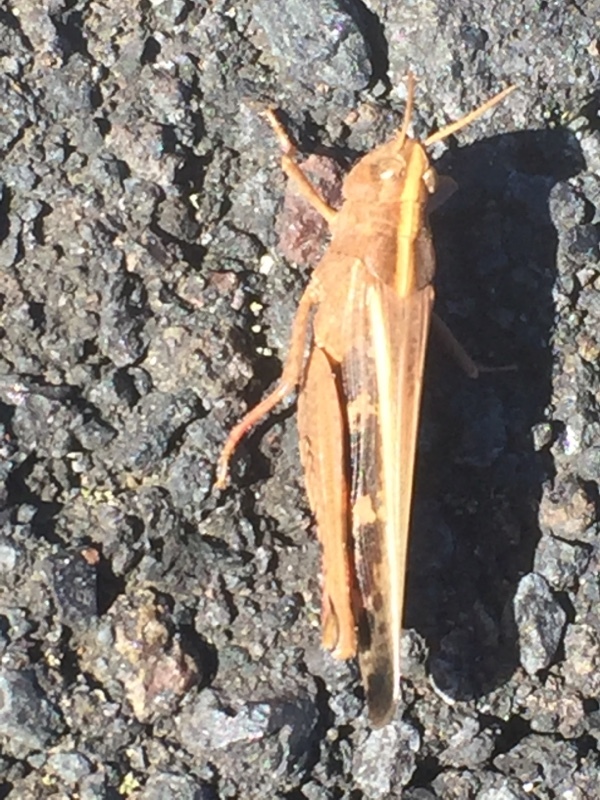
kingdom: Animalia
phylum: Arthropoda
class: Insecta
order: Orthoptera
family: Acrididae
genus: Aiolopus
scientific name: Aiolopus strepens
